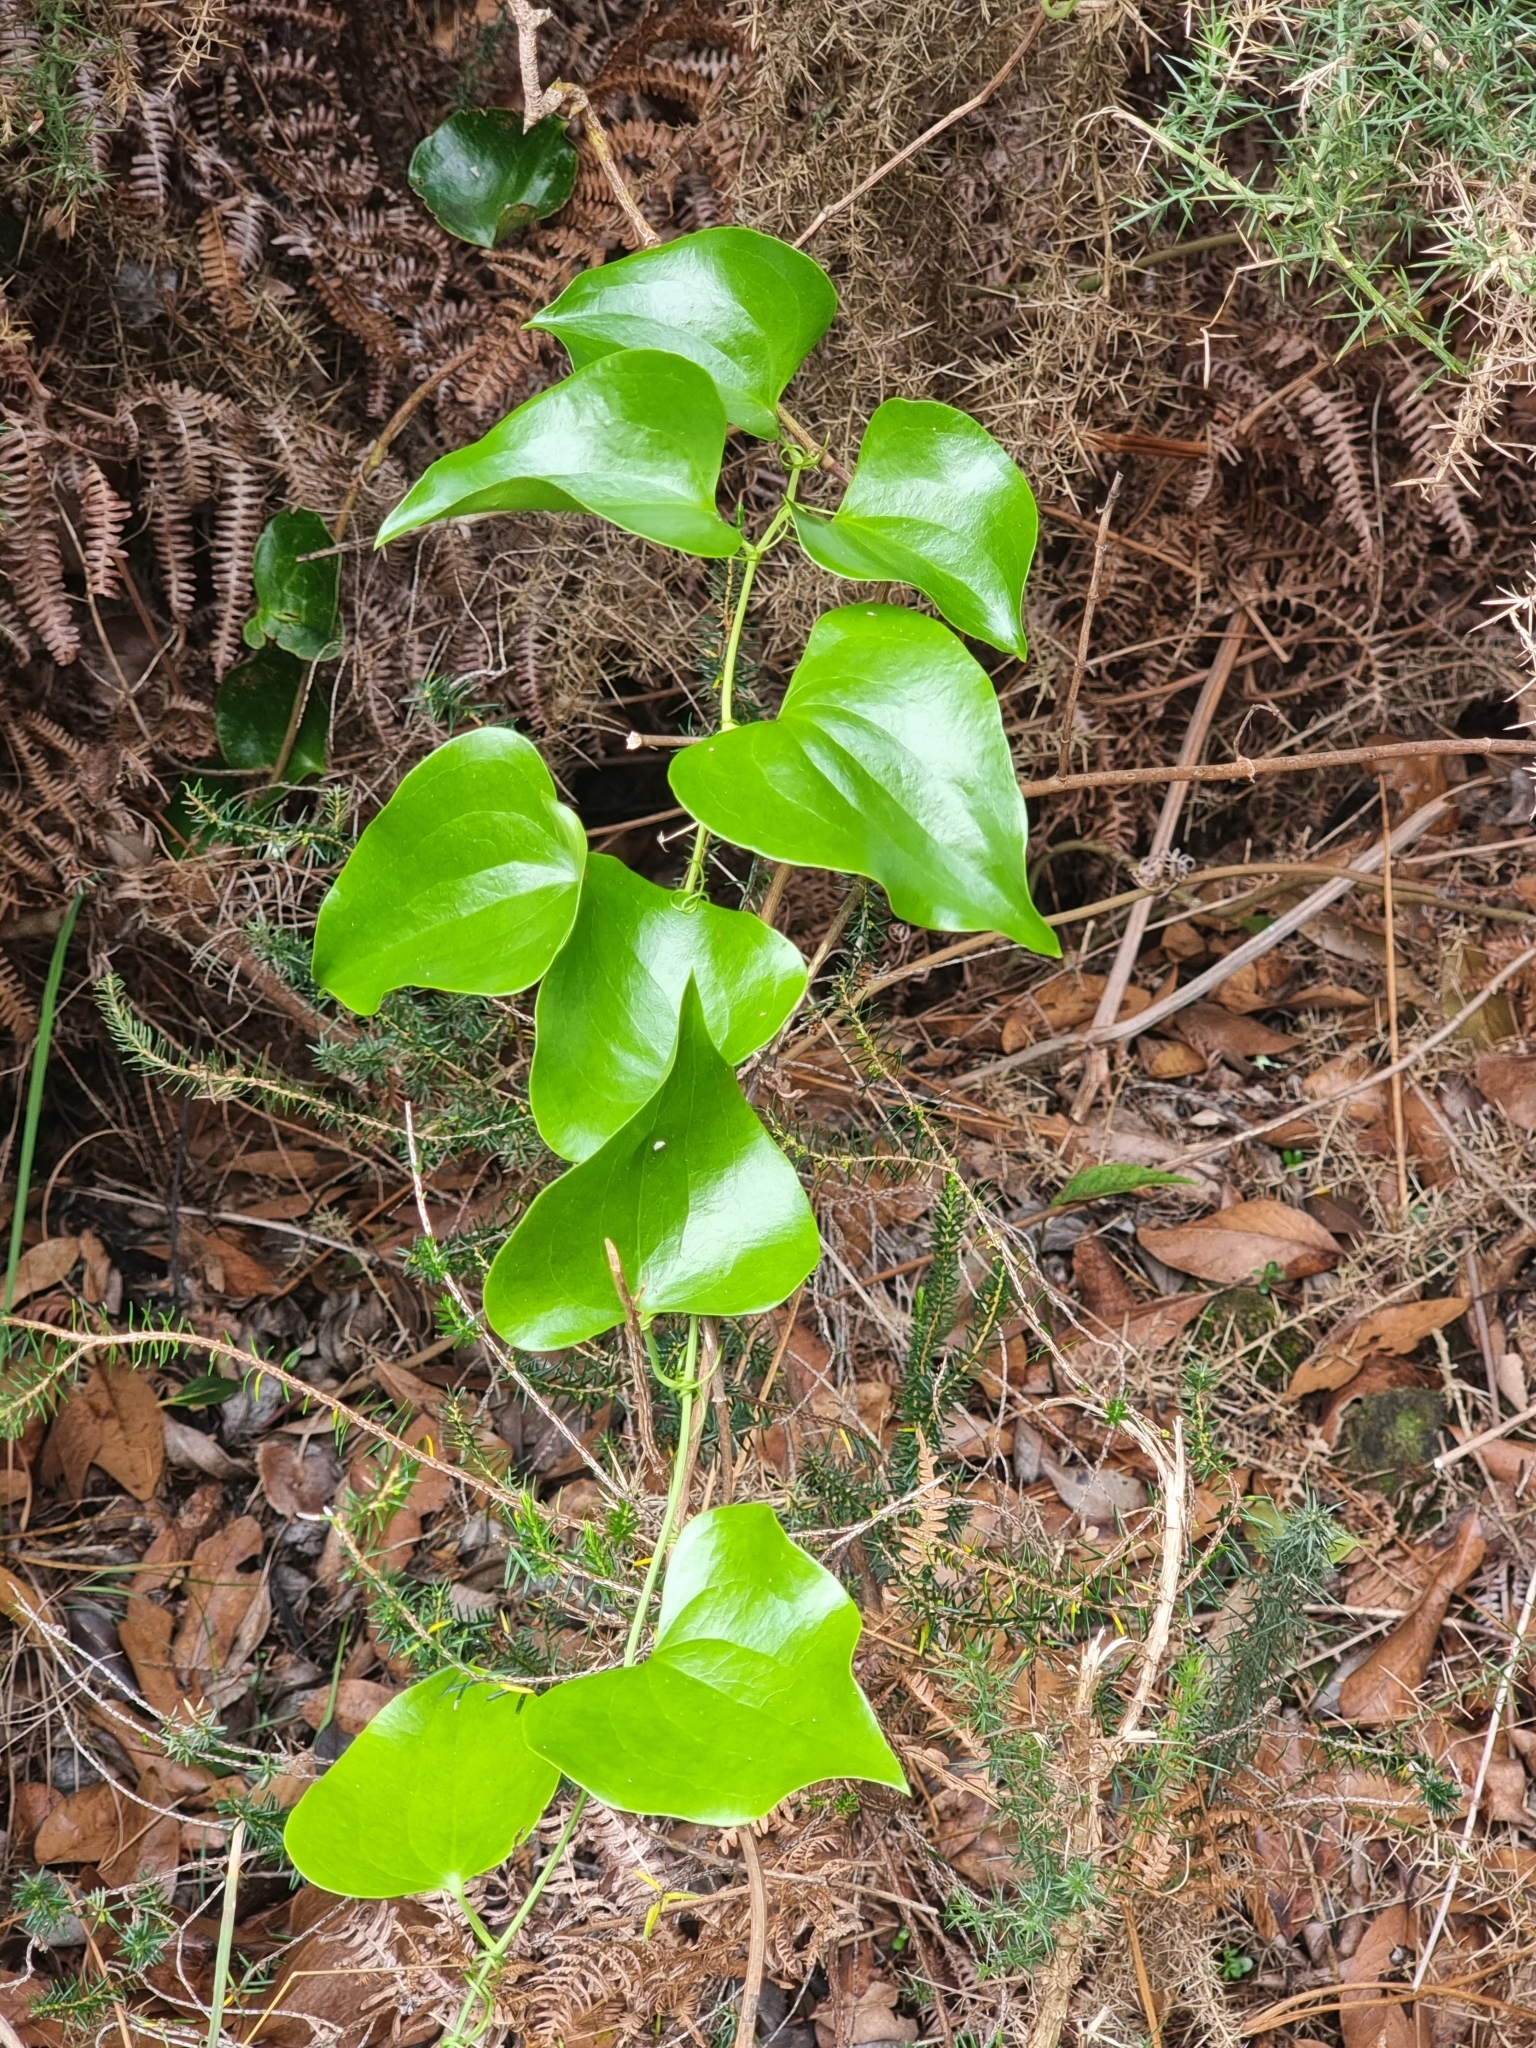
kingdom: Plantae
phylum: Tracheophyta
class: Liliopsida
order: Liliales
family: Smilacaceae
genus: Smilax
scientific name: Smilax aspera
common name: Common smilax
